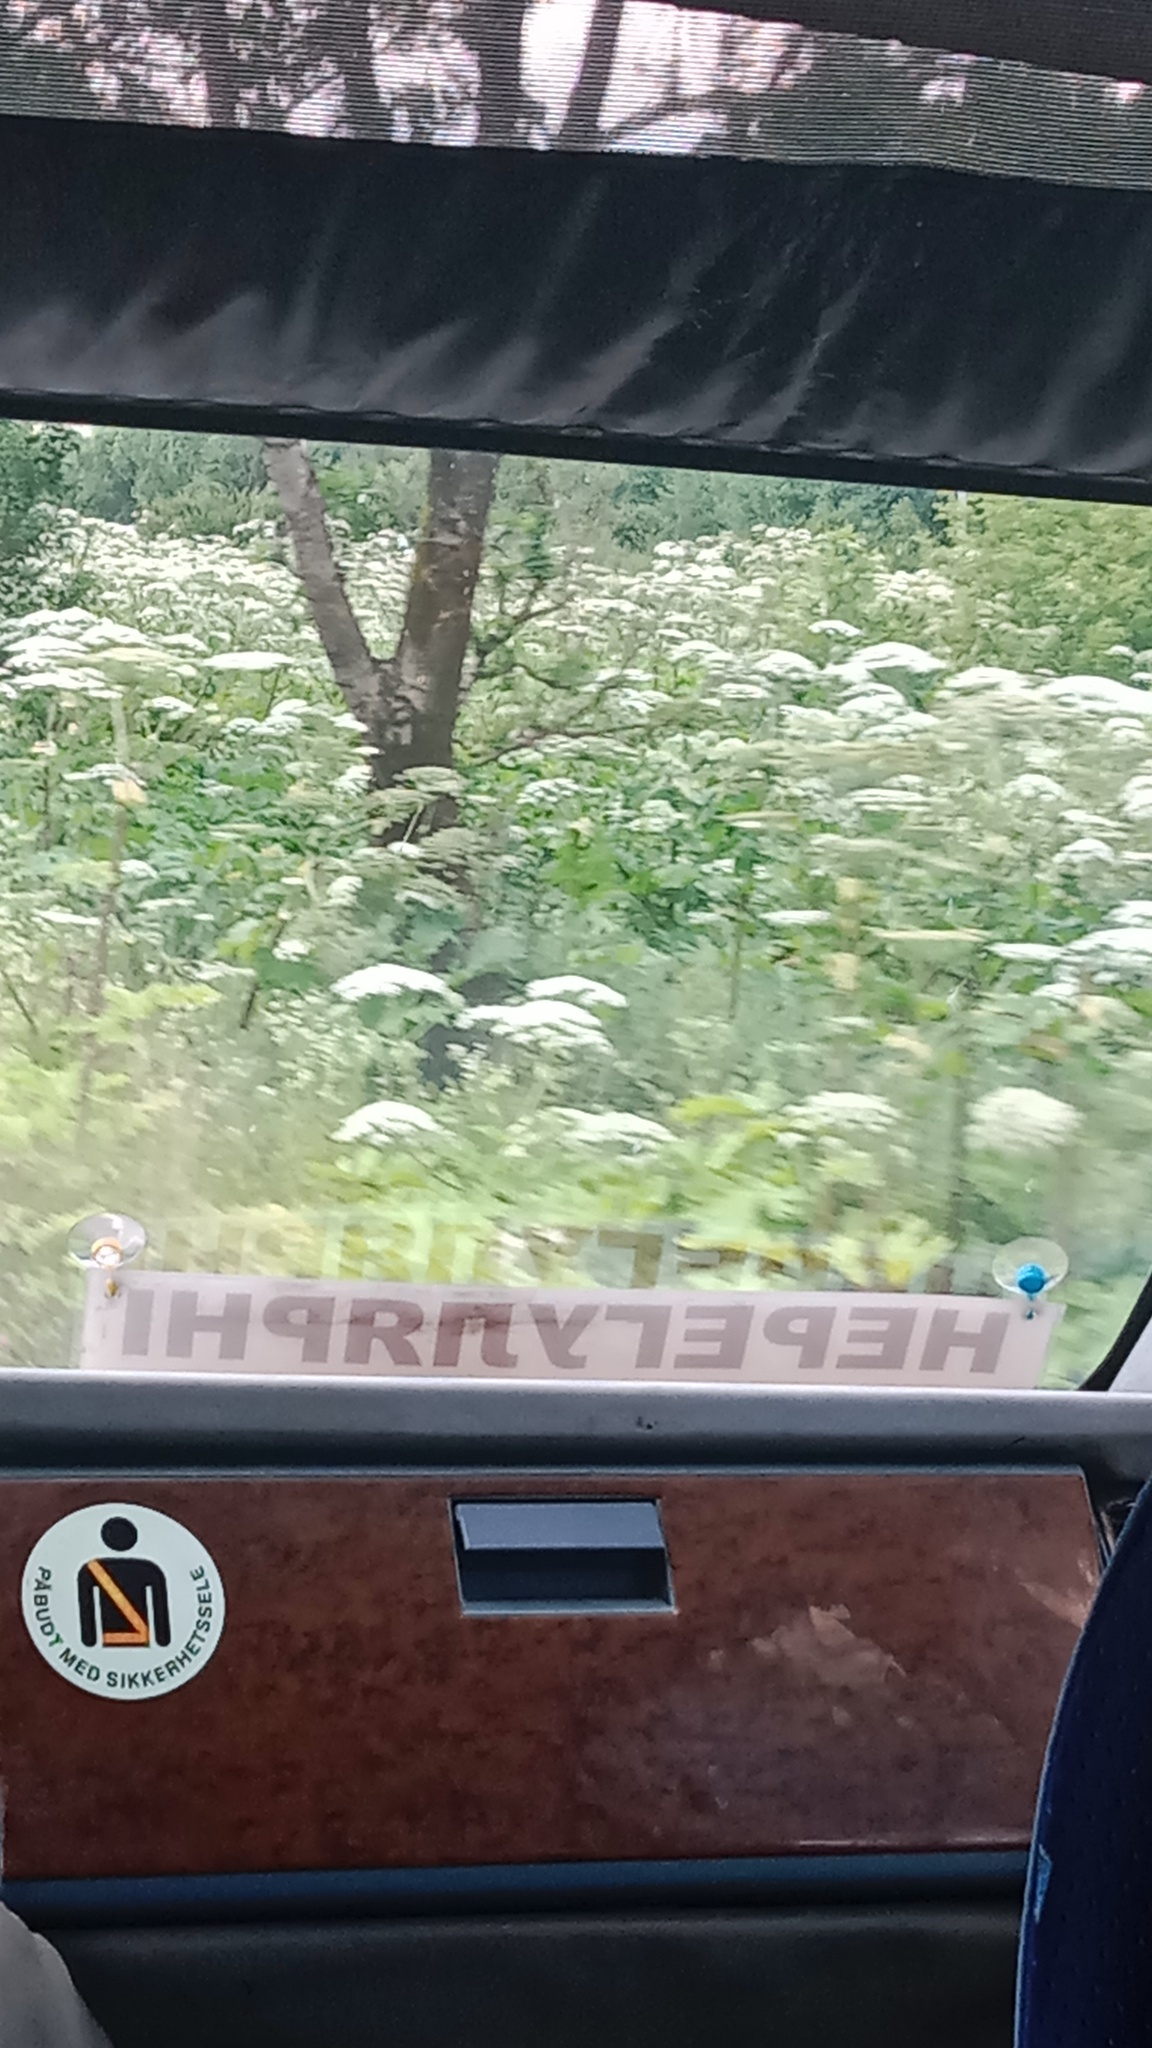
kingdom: Plantae
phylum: Tracheophyta
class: Magnoliopsida
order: Apiales
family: Apiaceae
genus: Heracleum
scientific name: Heracleum sosnowskyi
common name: Sosnowsky's hogweed
